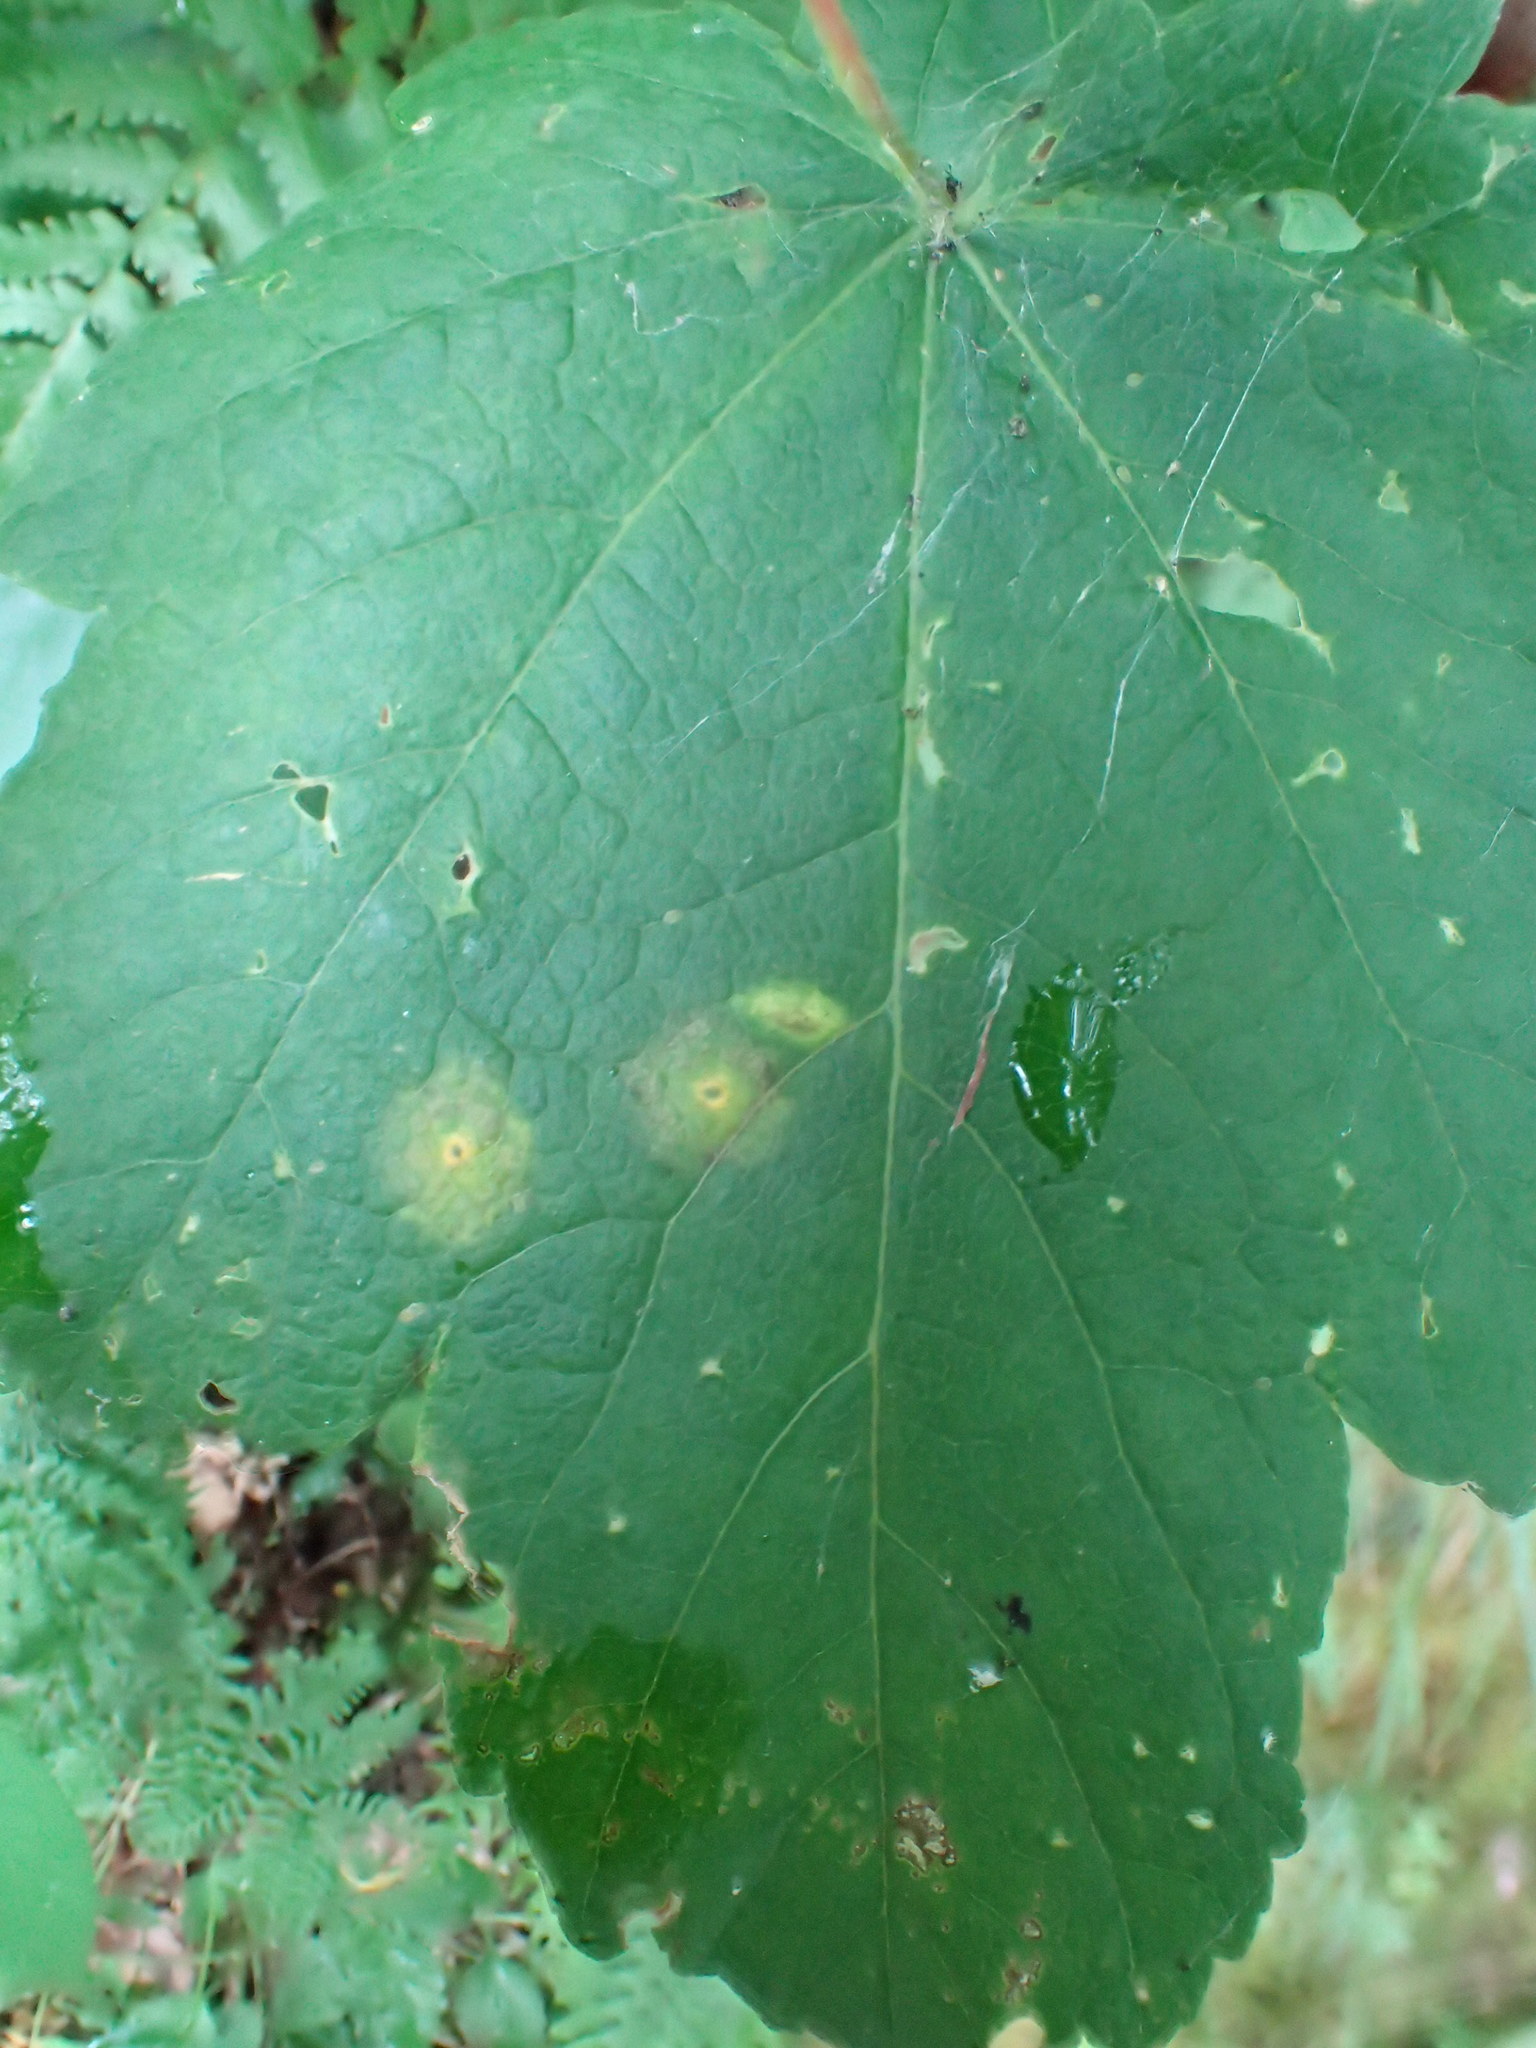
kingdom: Animalia
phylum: Arthropoda
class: Insecta
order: Diptera
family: Cecidomyiidae
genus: Drisina
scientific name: Drisina glutinosa
